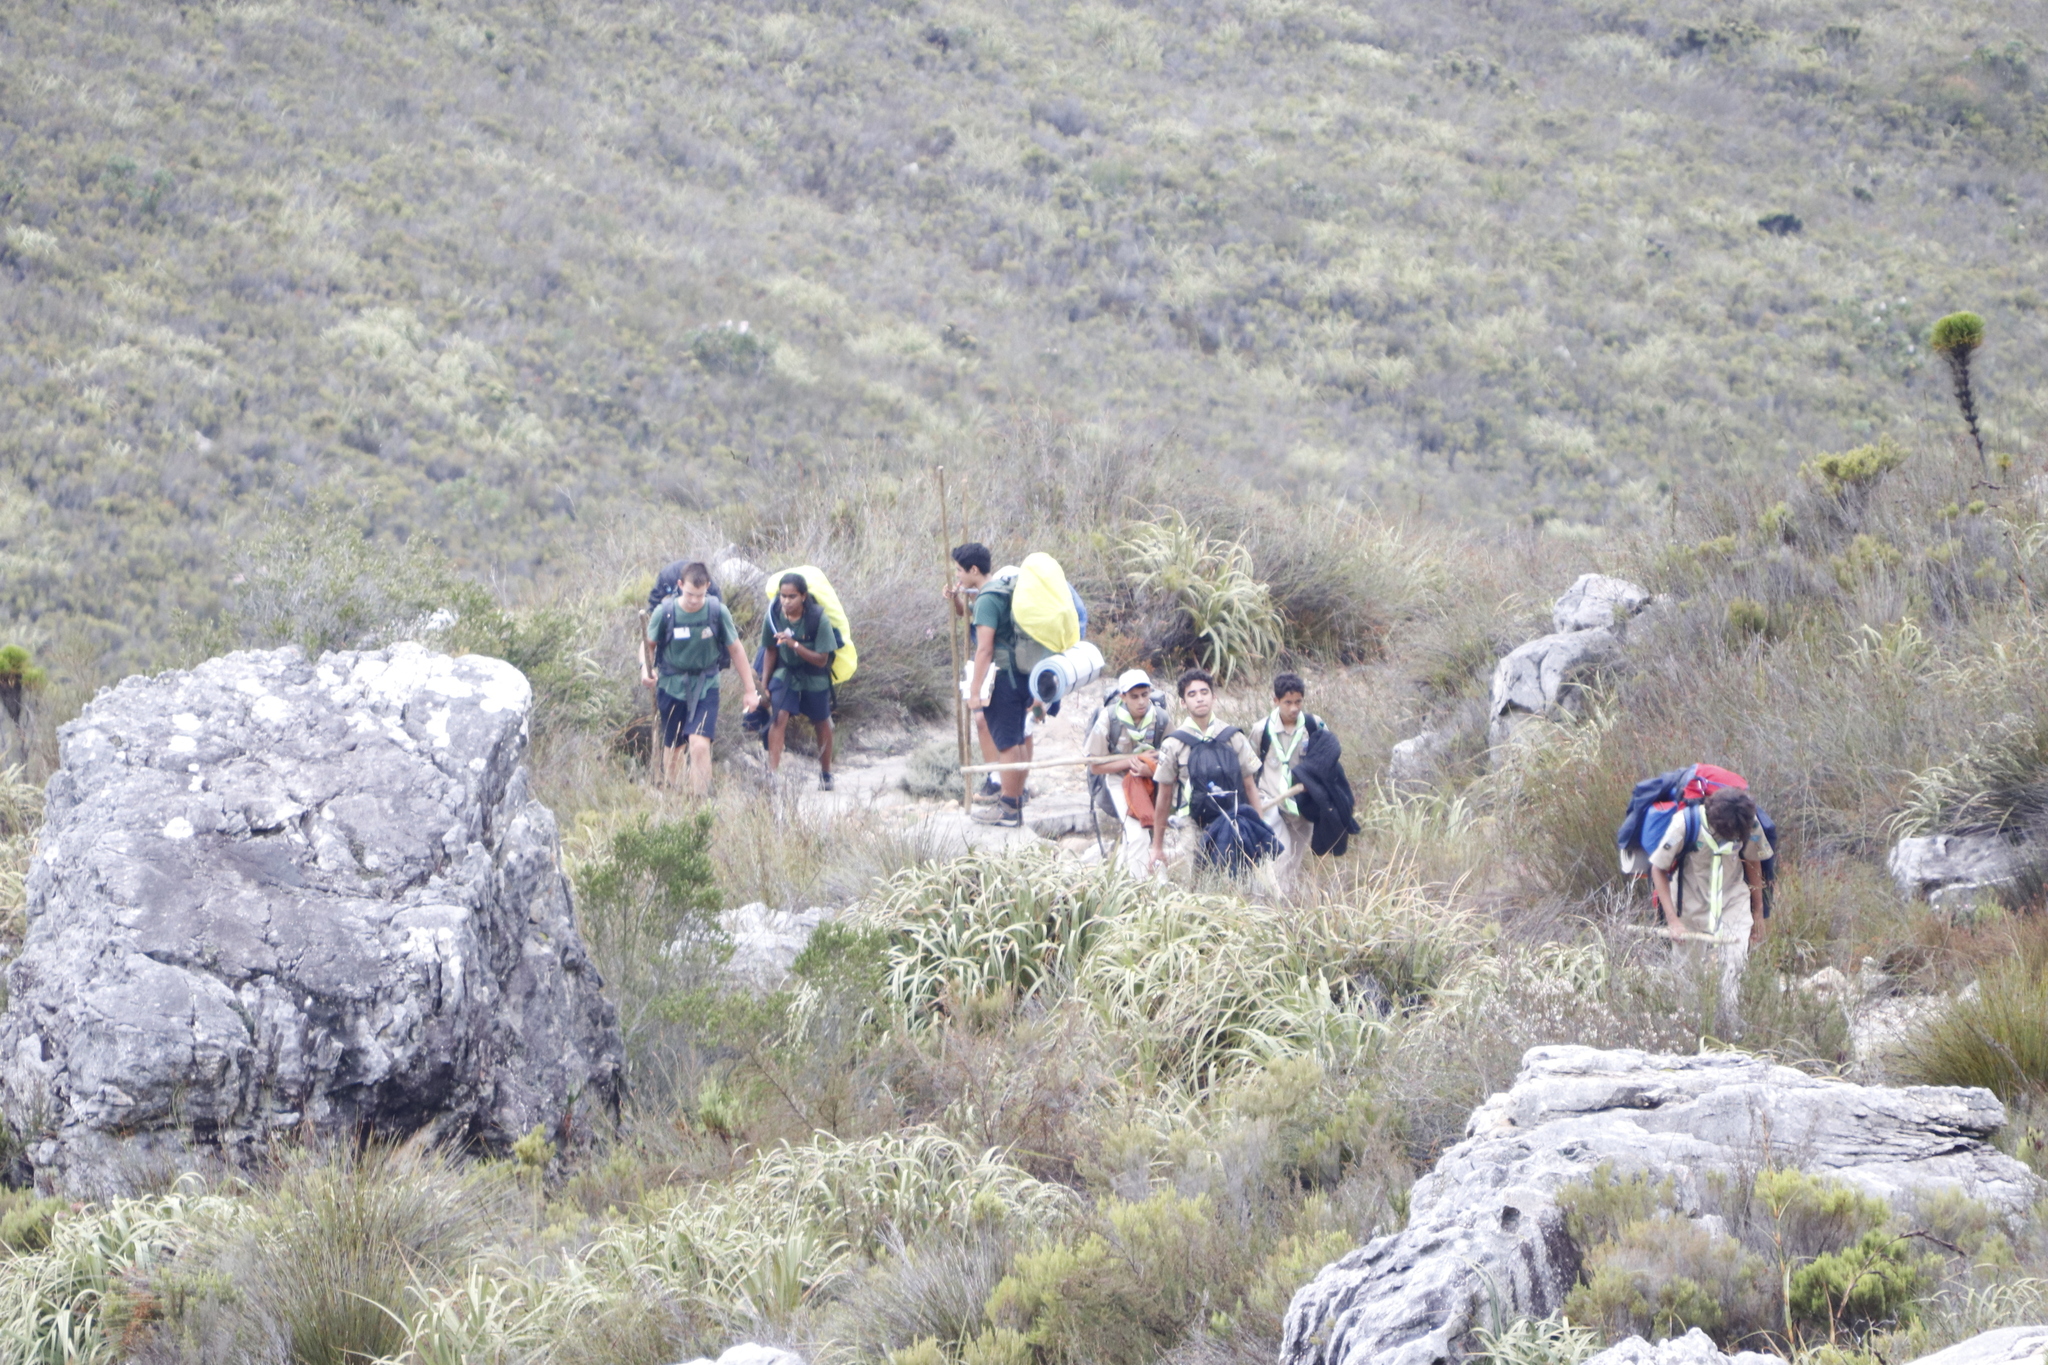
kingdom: Plantae
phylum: Tracheophyta
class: Liliopsida
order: Poales
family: Cyperaceae
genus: Tetraria
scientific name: Tetraria thermalis
